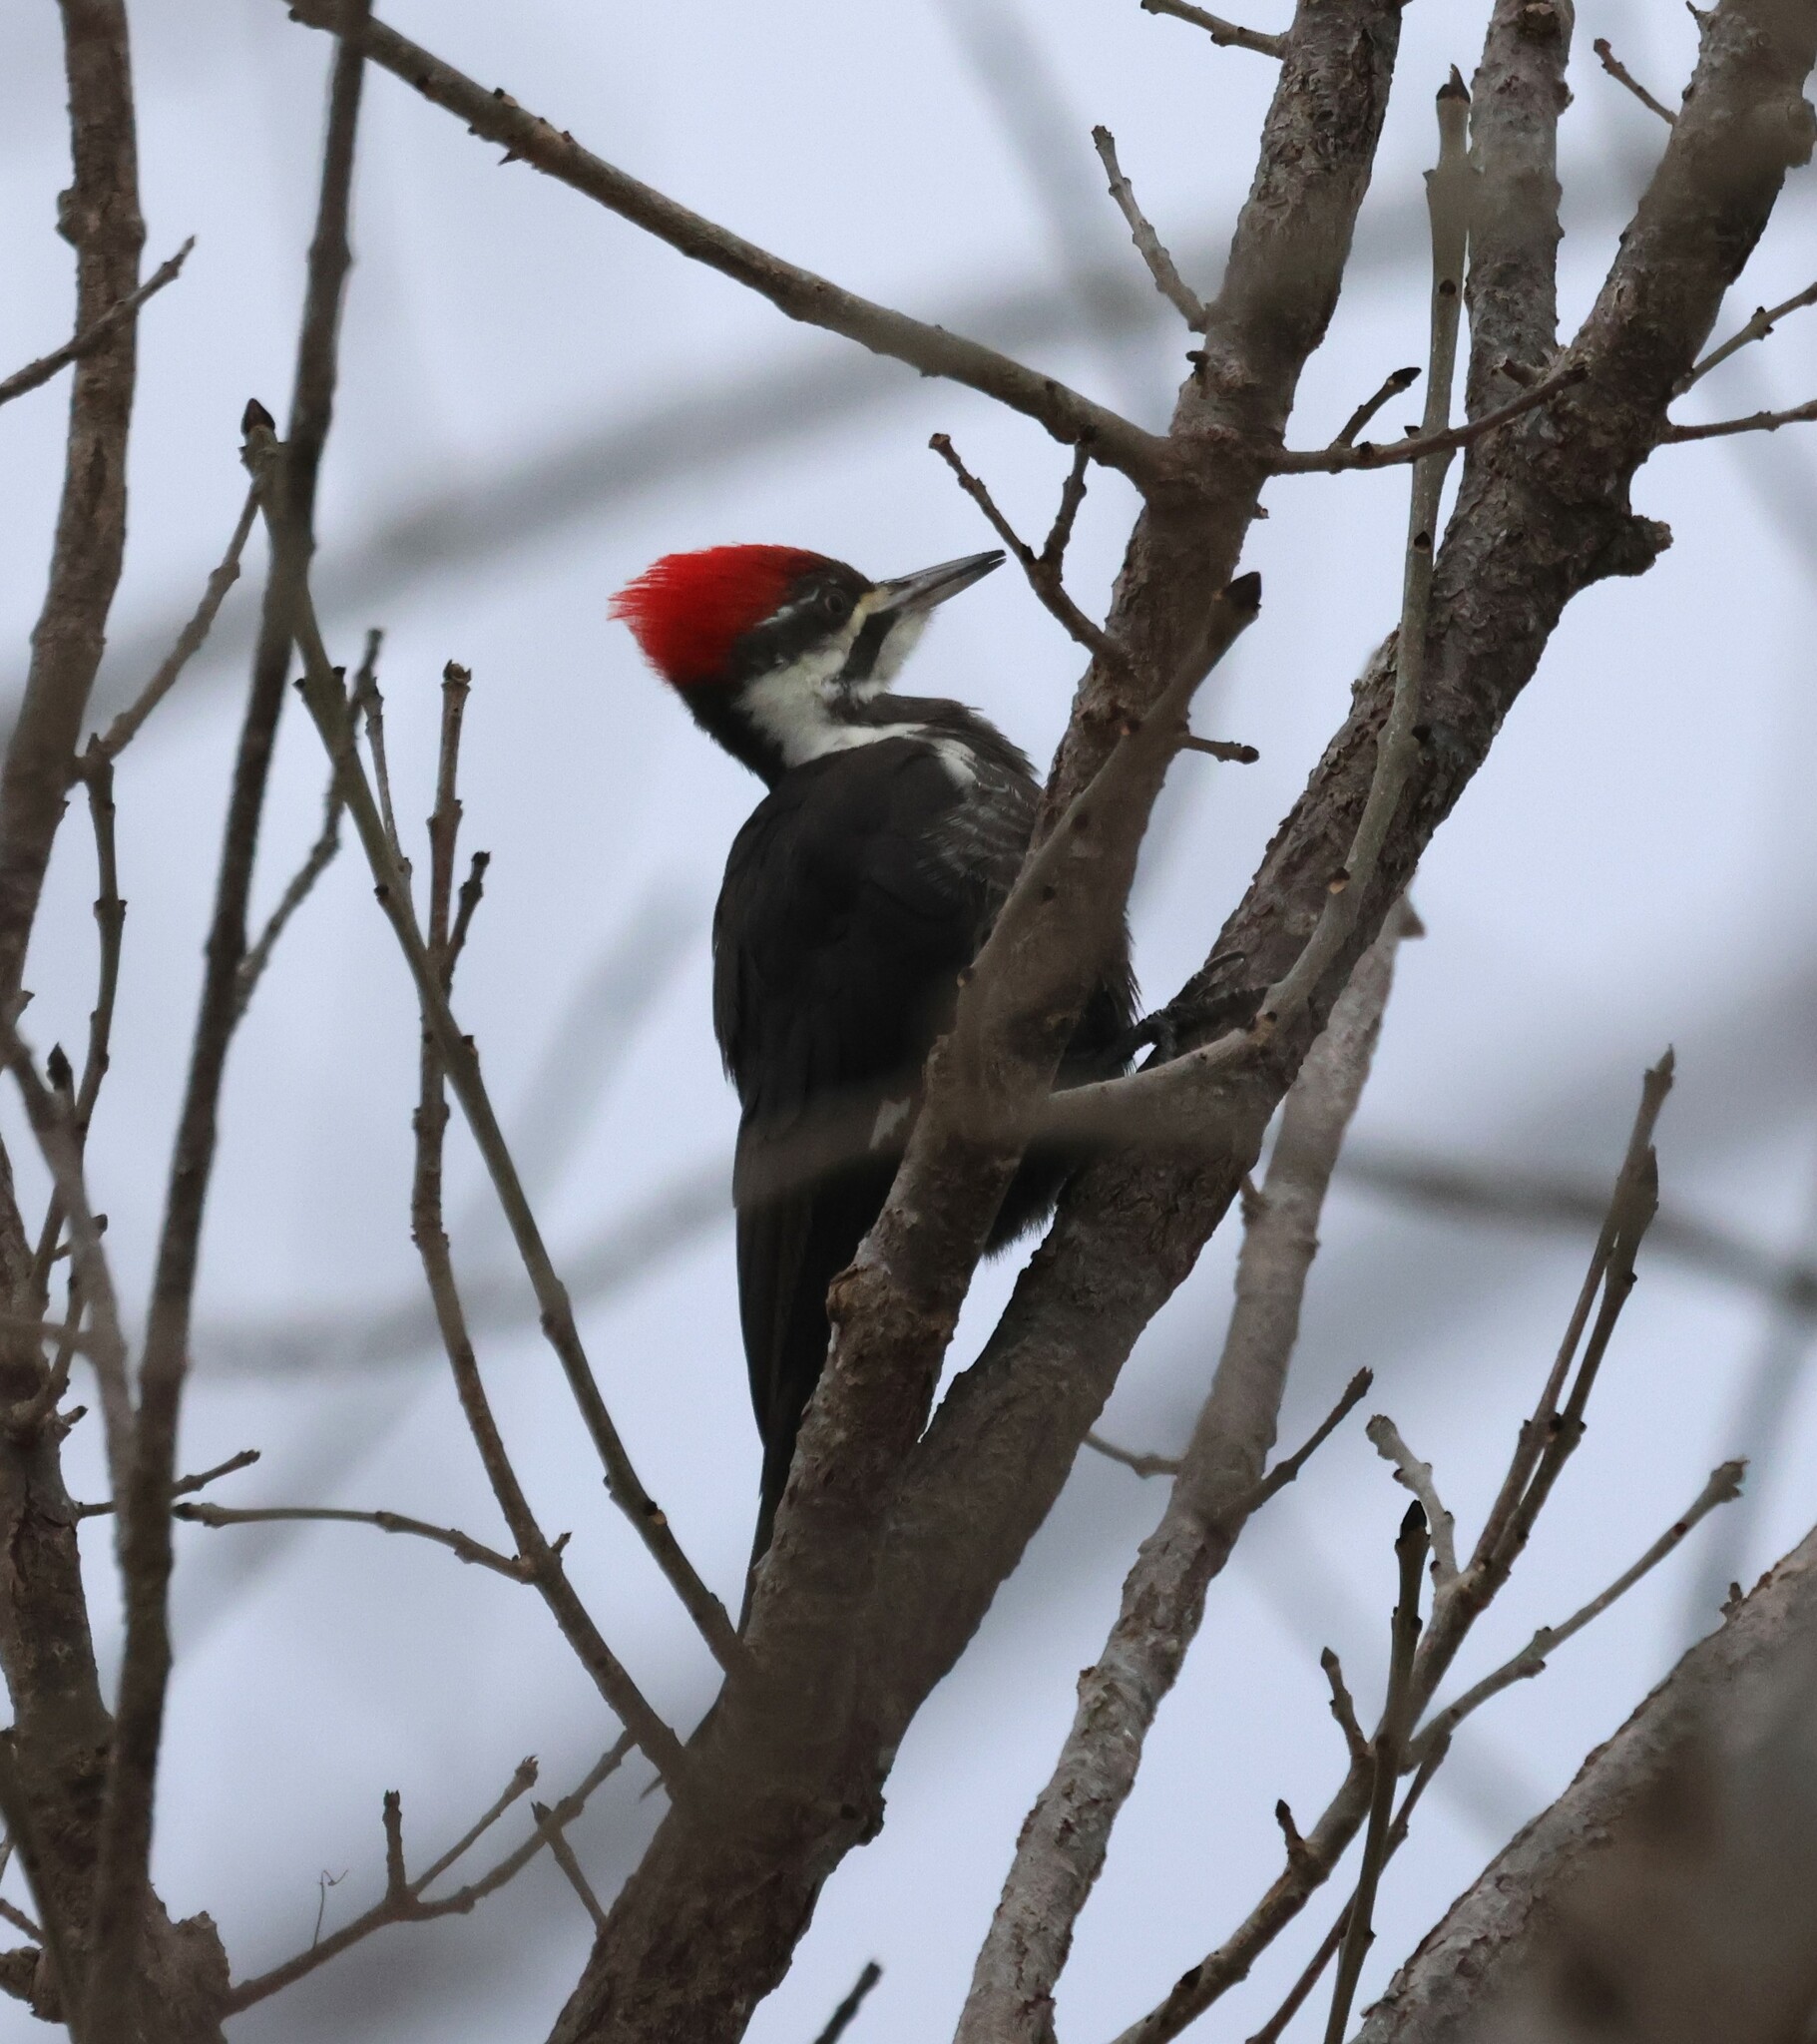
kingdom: Animalia
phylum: Chordata
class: Aves
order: Piciformes
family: Picidae
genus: Dryocopus
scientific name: Dryocopus pileatus
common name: Pileated woodpecker
